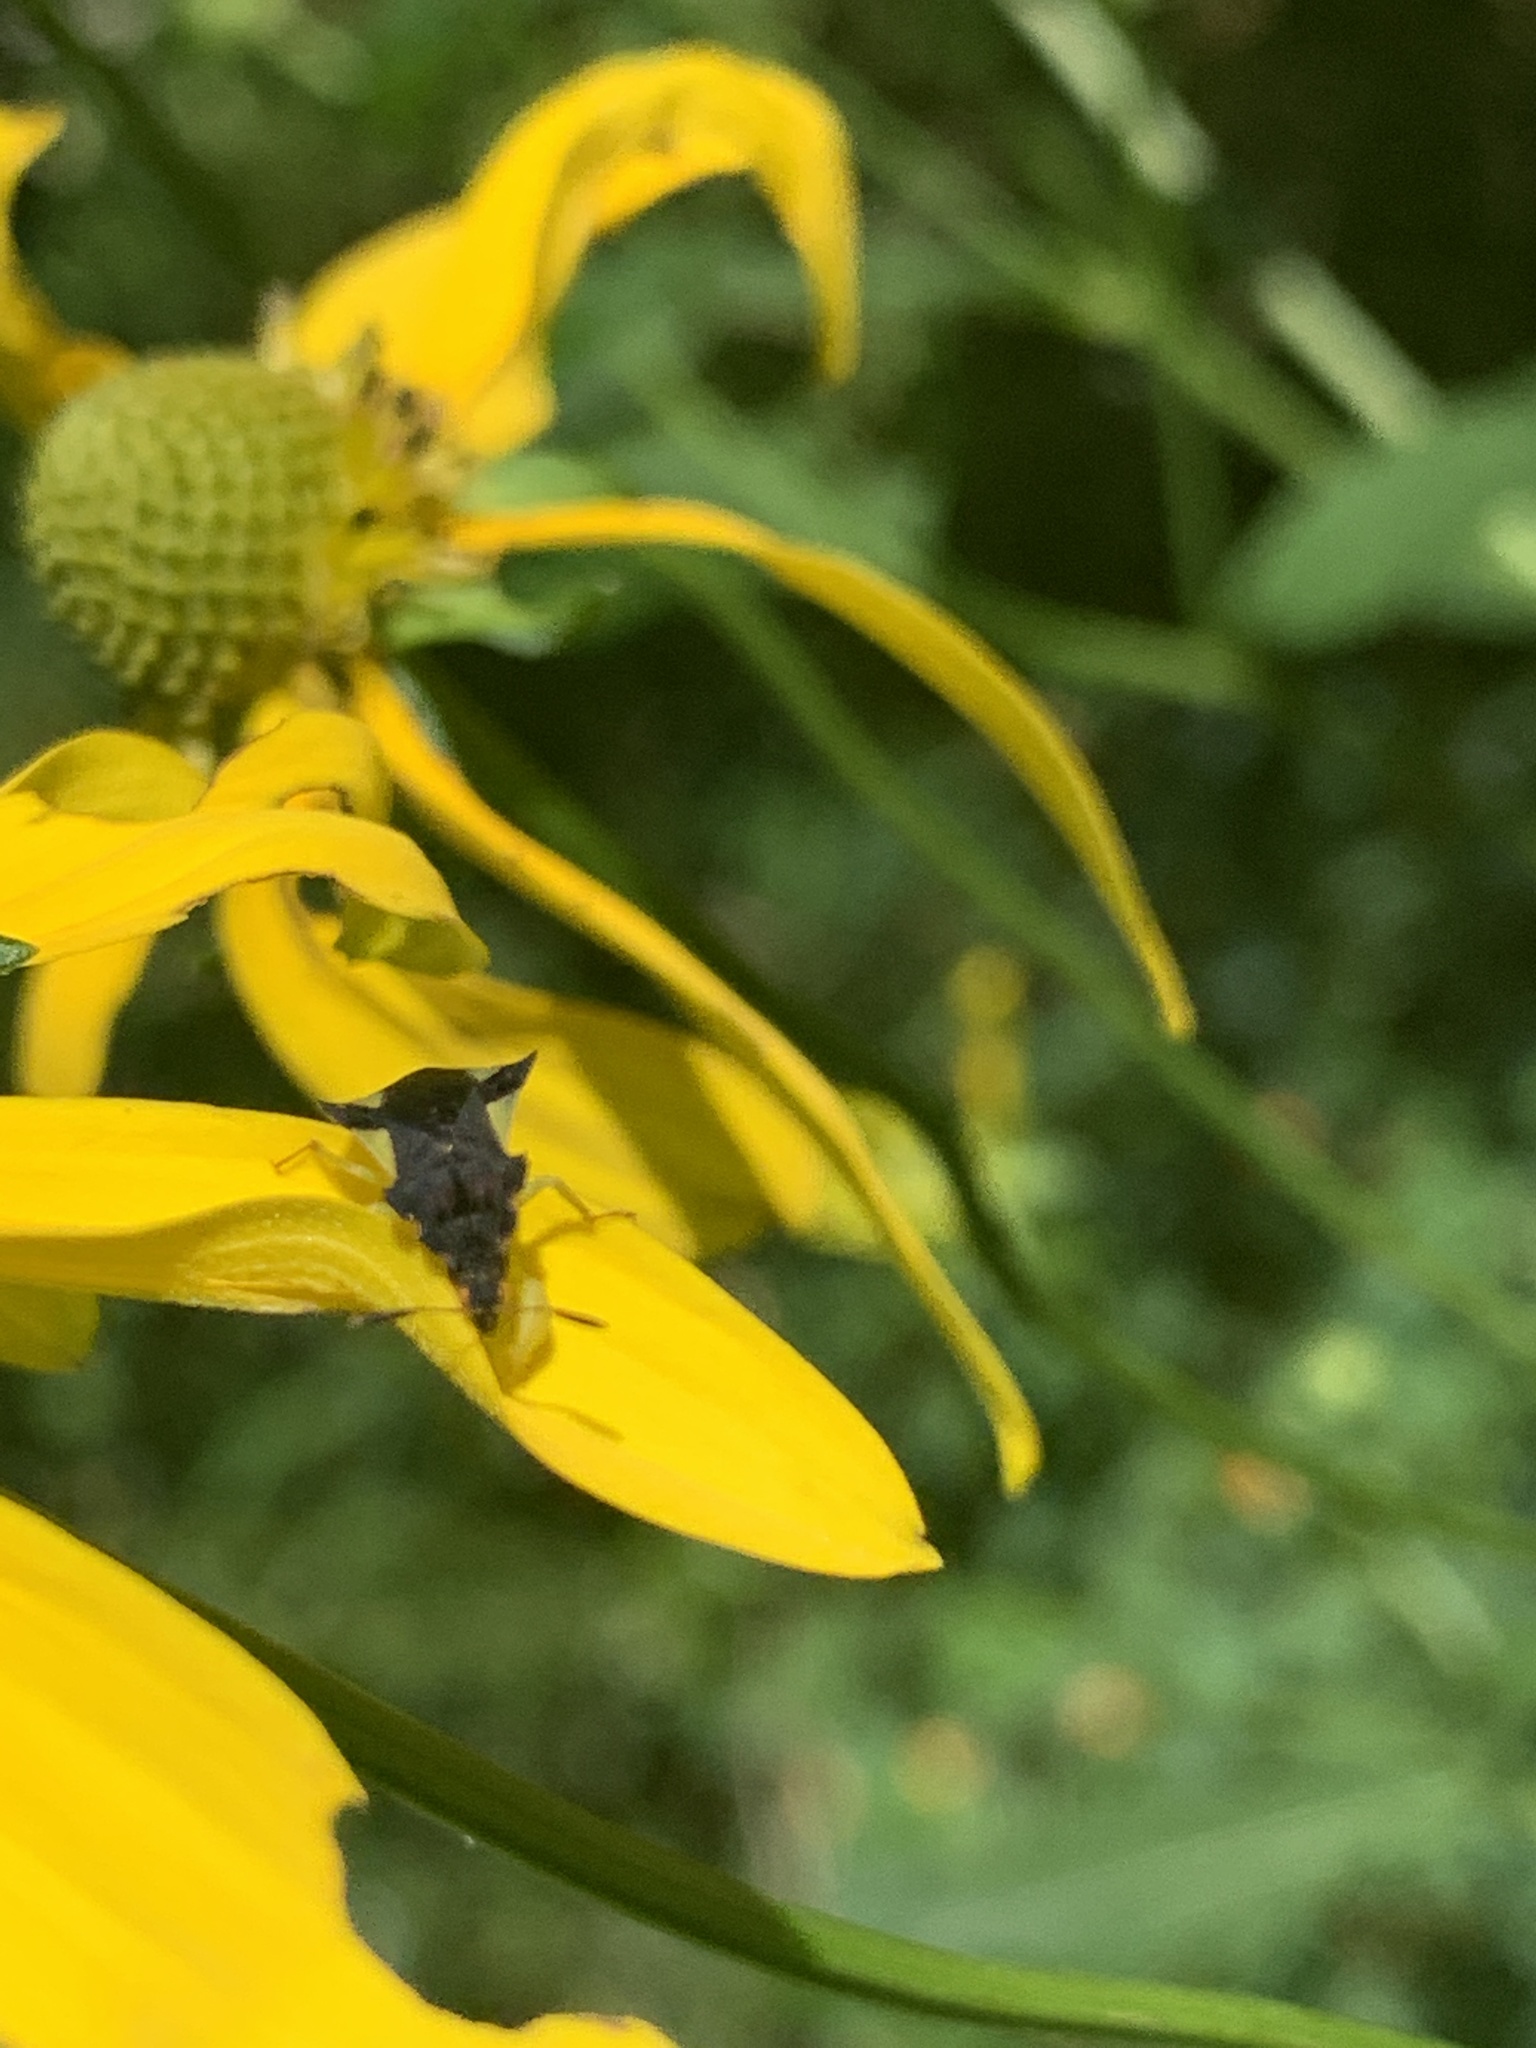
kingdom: Animalia
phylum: Arthropoda
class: Insecta
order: Hemiptera
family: Reduviidae
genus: Phymata
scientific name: Phymata pennsylvanica
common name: Pennsylvania ambush bug
